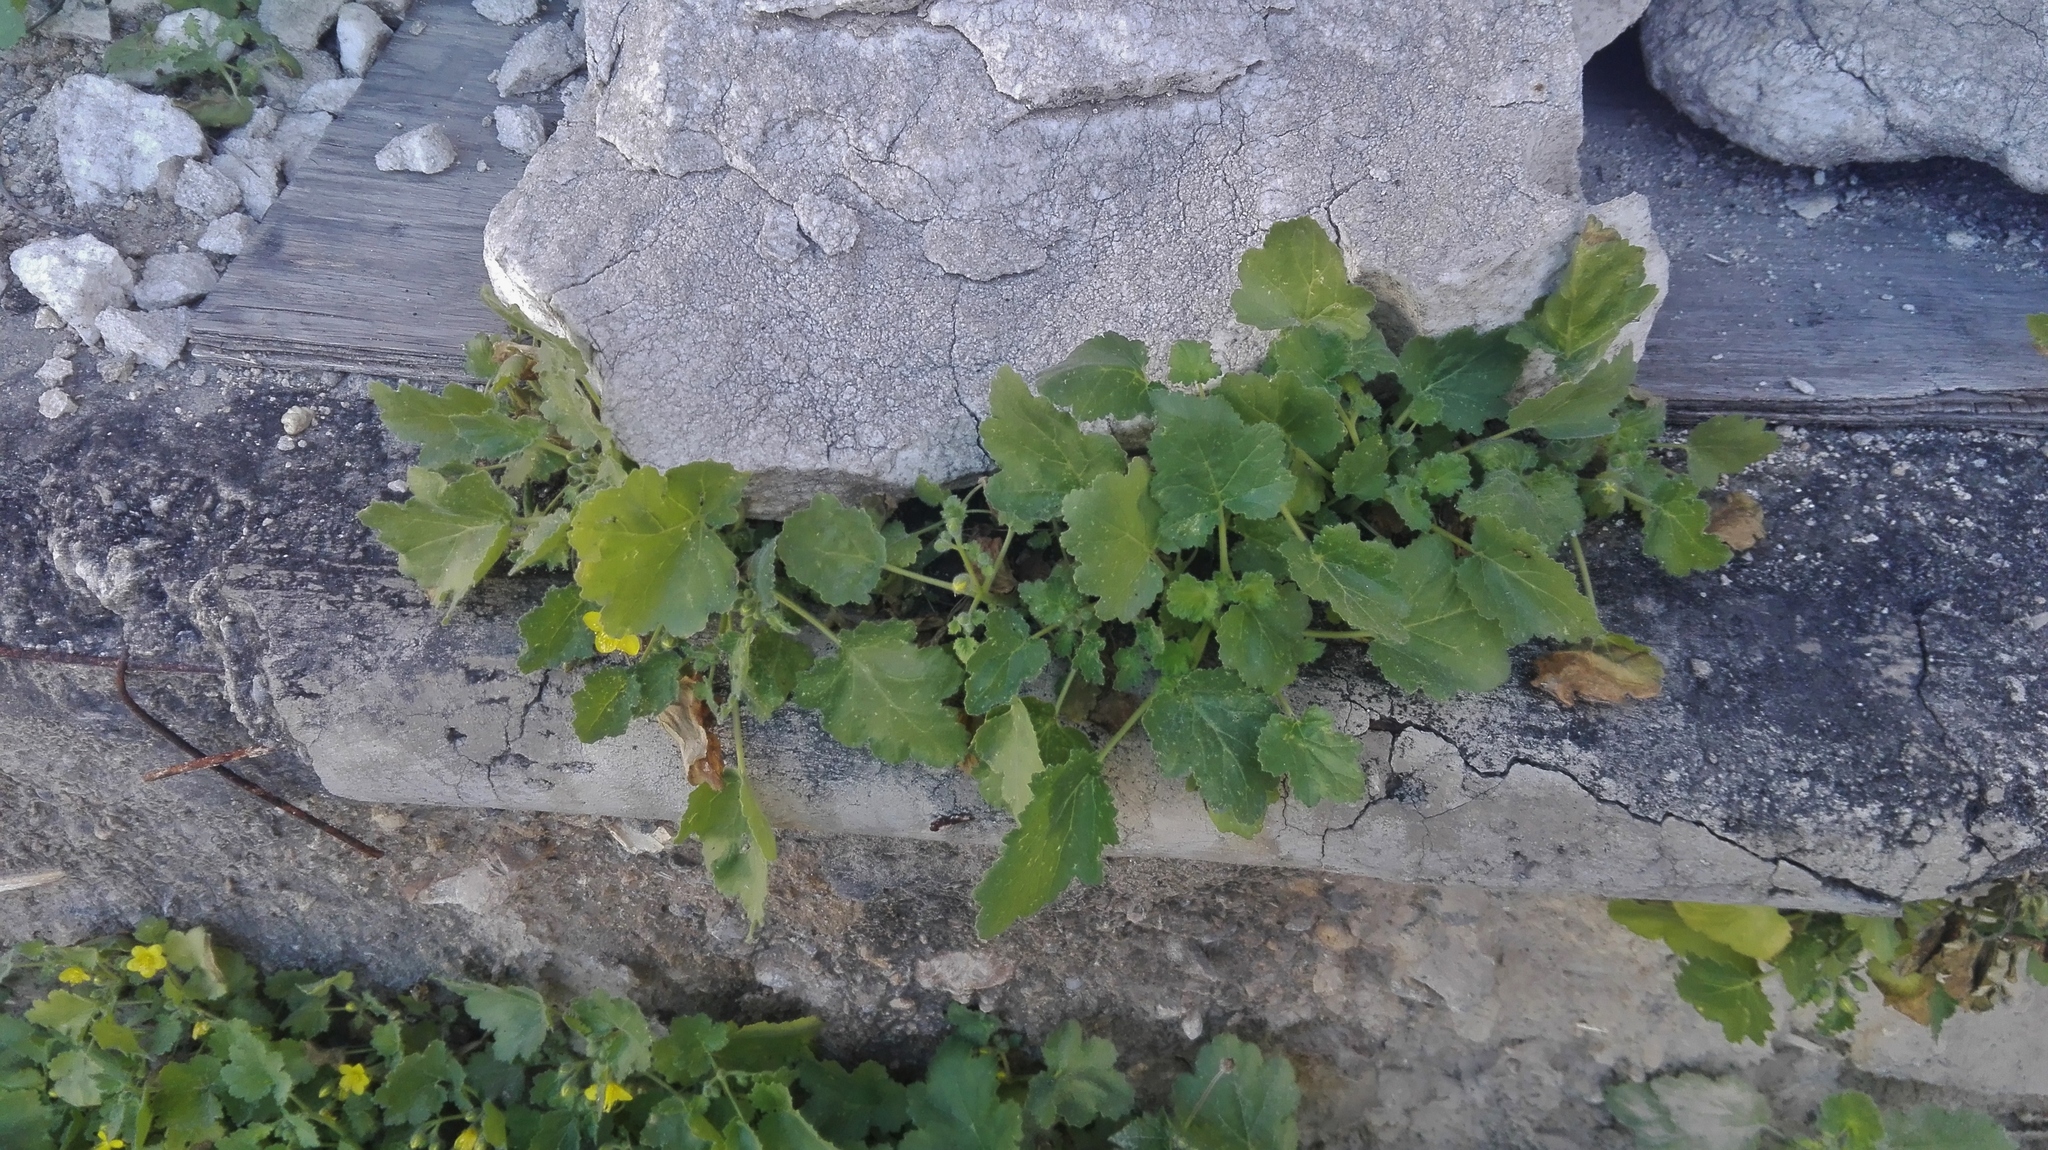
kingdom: Plantae
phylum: Tracheophyta
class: Magnoliopsida
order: Cornales
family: Loasaceae
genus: Eucnide
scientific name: Eucnide lobata
